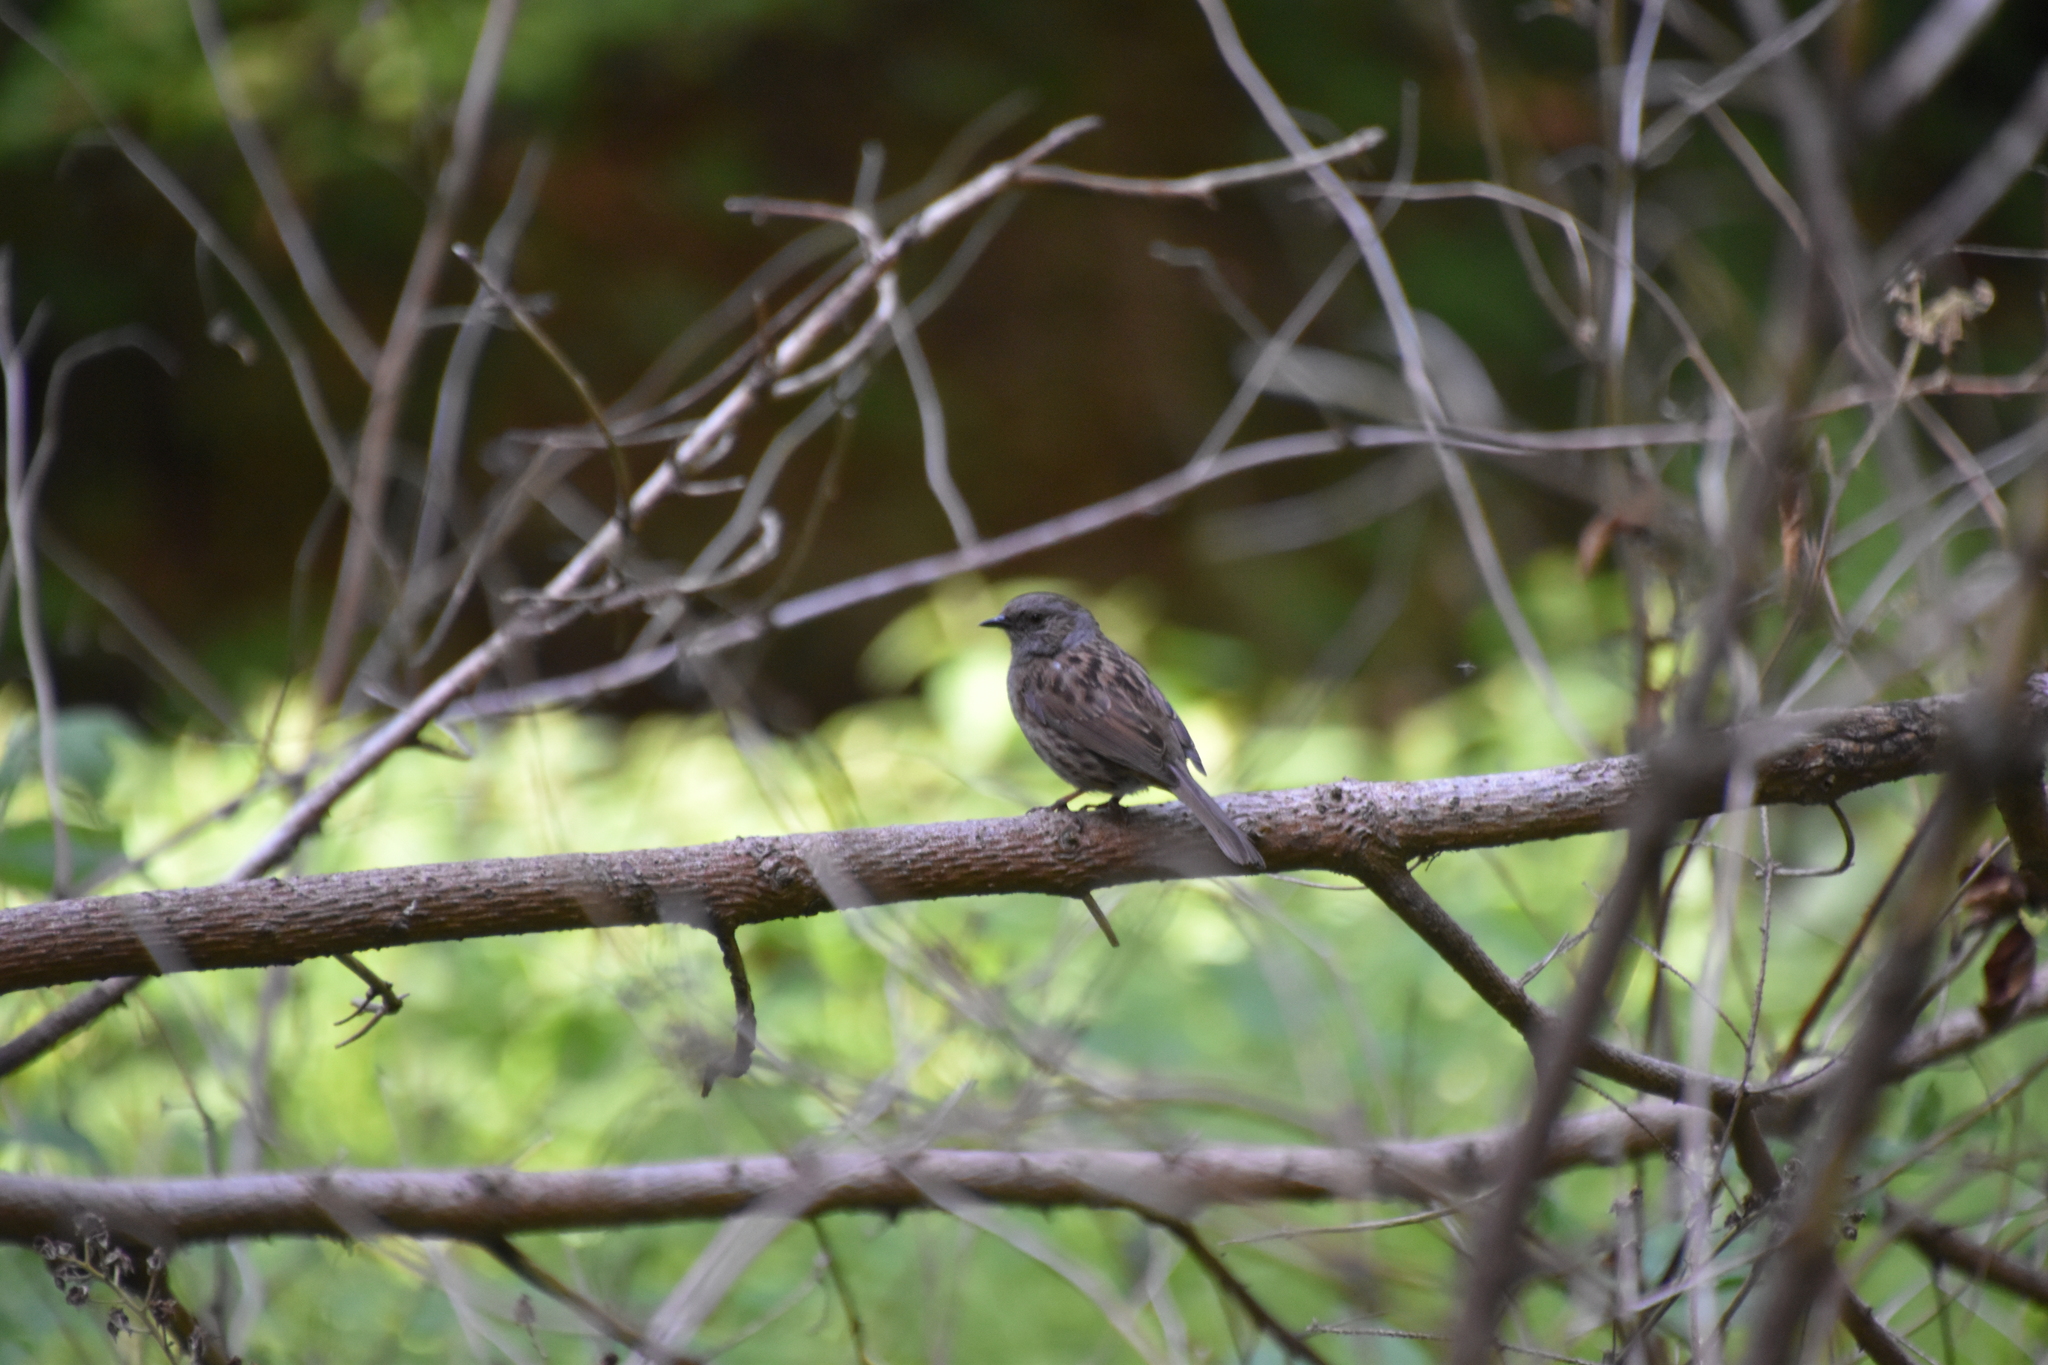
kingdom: Animalia
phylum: Chordata
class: Aves
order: Passeriformes
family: Prunellidae
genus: Prunella
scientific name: Prunella modularis
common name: Dunnock
